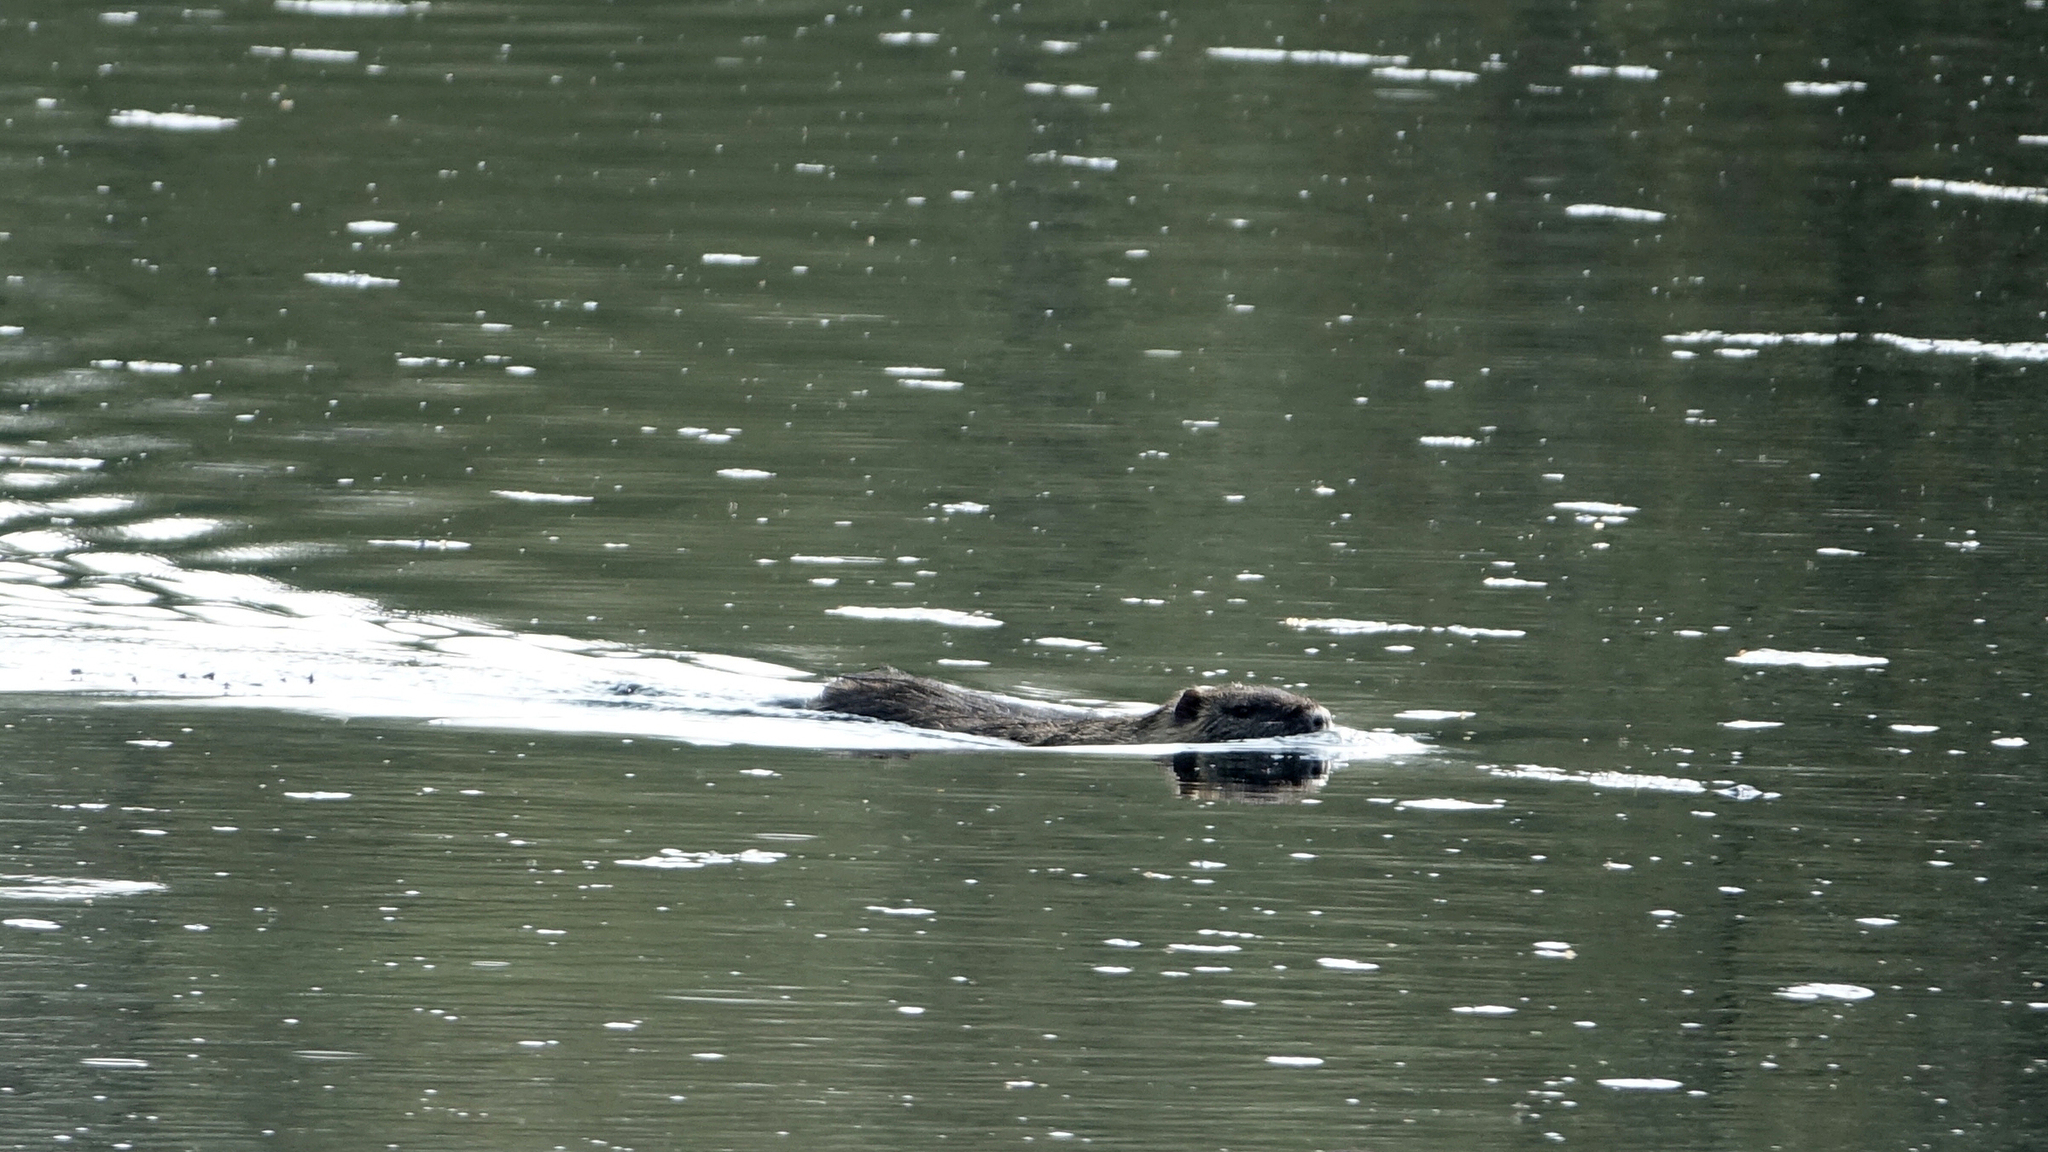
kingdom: Animalia
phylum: Chordata
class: Mammalia
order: Rodentia
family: Myocastoridae
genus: Myocastor
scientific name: Myocastor coypus
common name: Coypu
